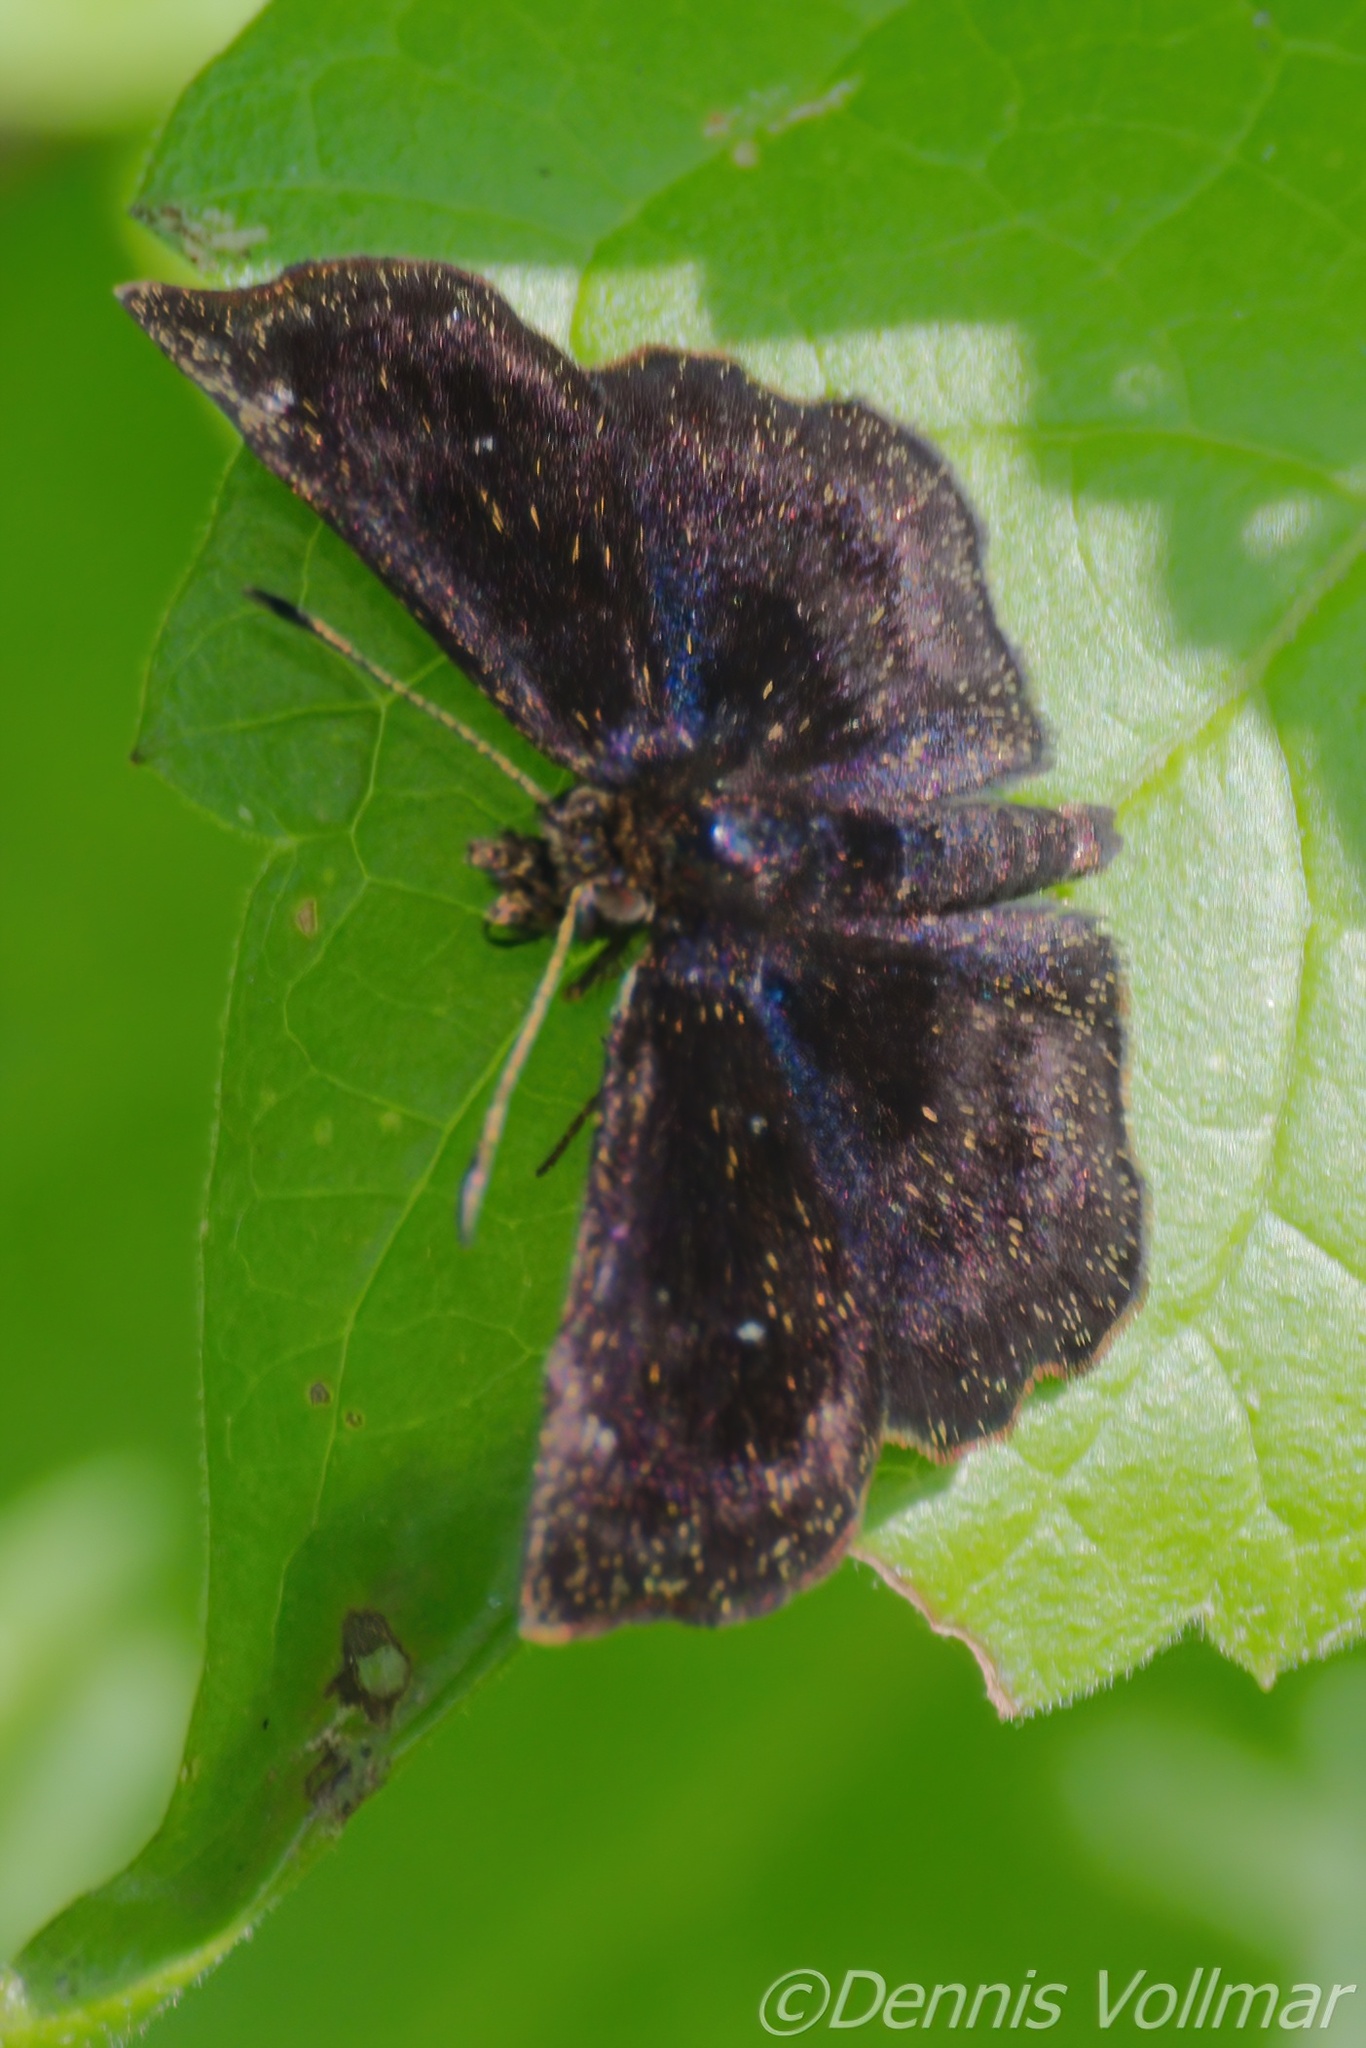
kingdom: Animalia
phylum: Arthropoda
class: Insecta
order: Lepidoptera
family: Hesperiidae
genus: Staphylus
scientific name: Staphylus mazans
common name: Mazans scallopwing
